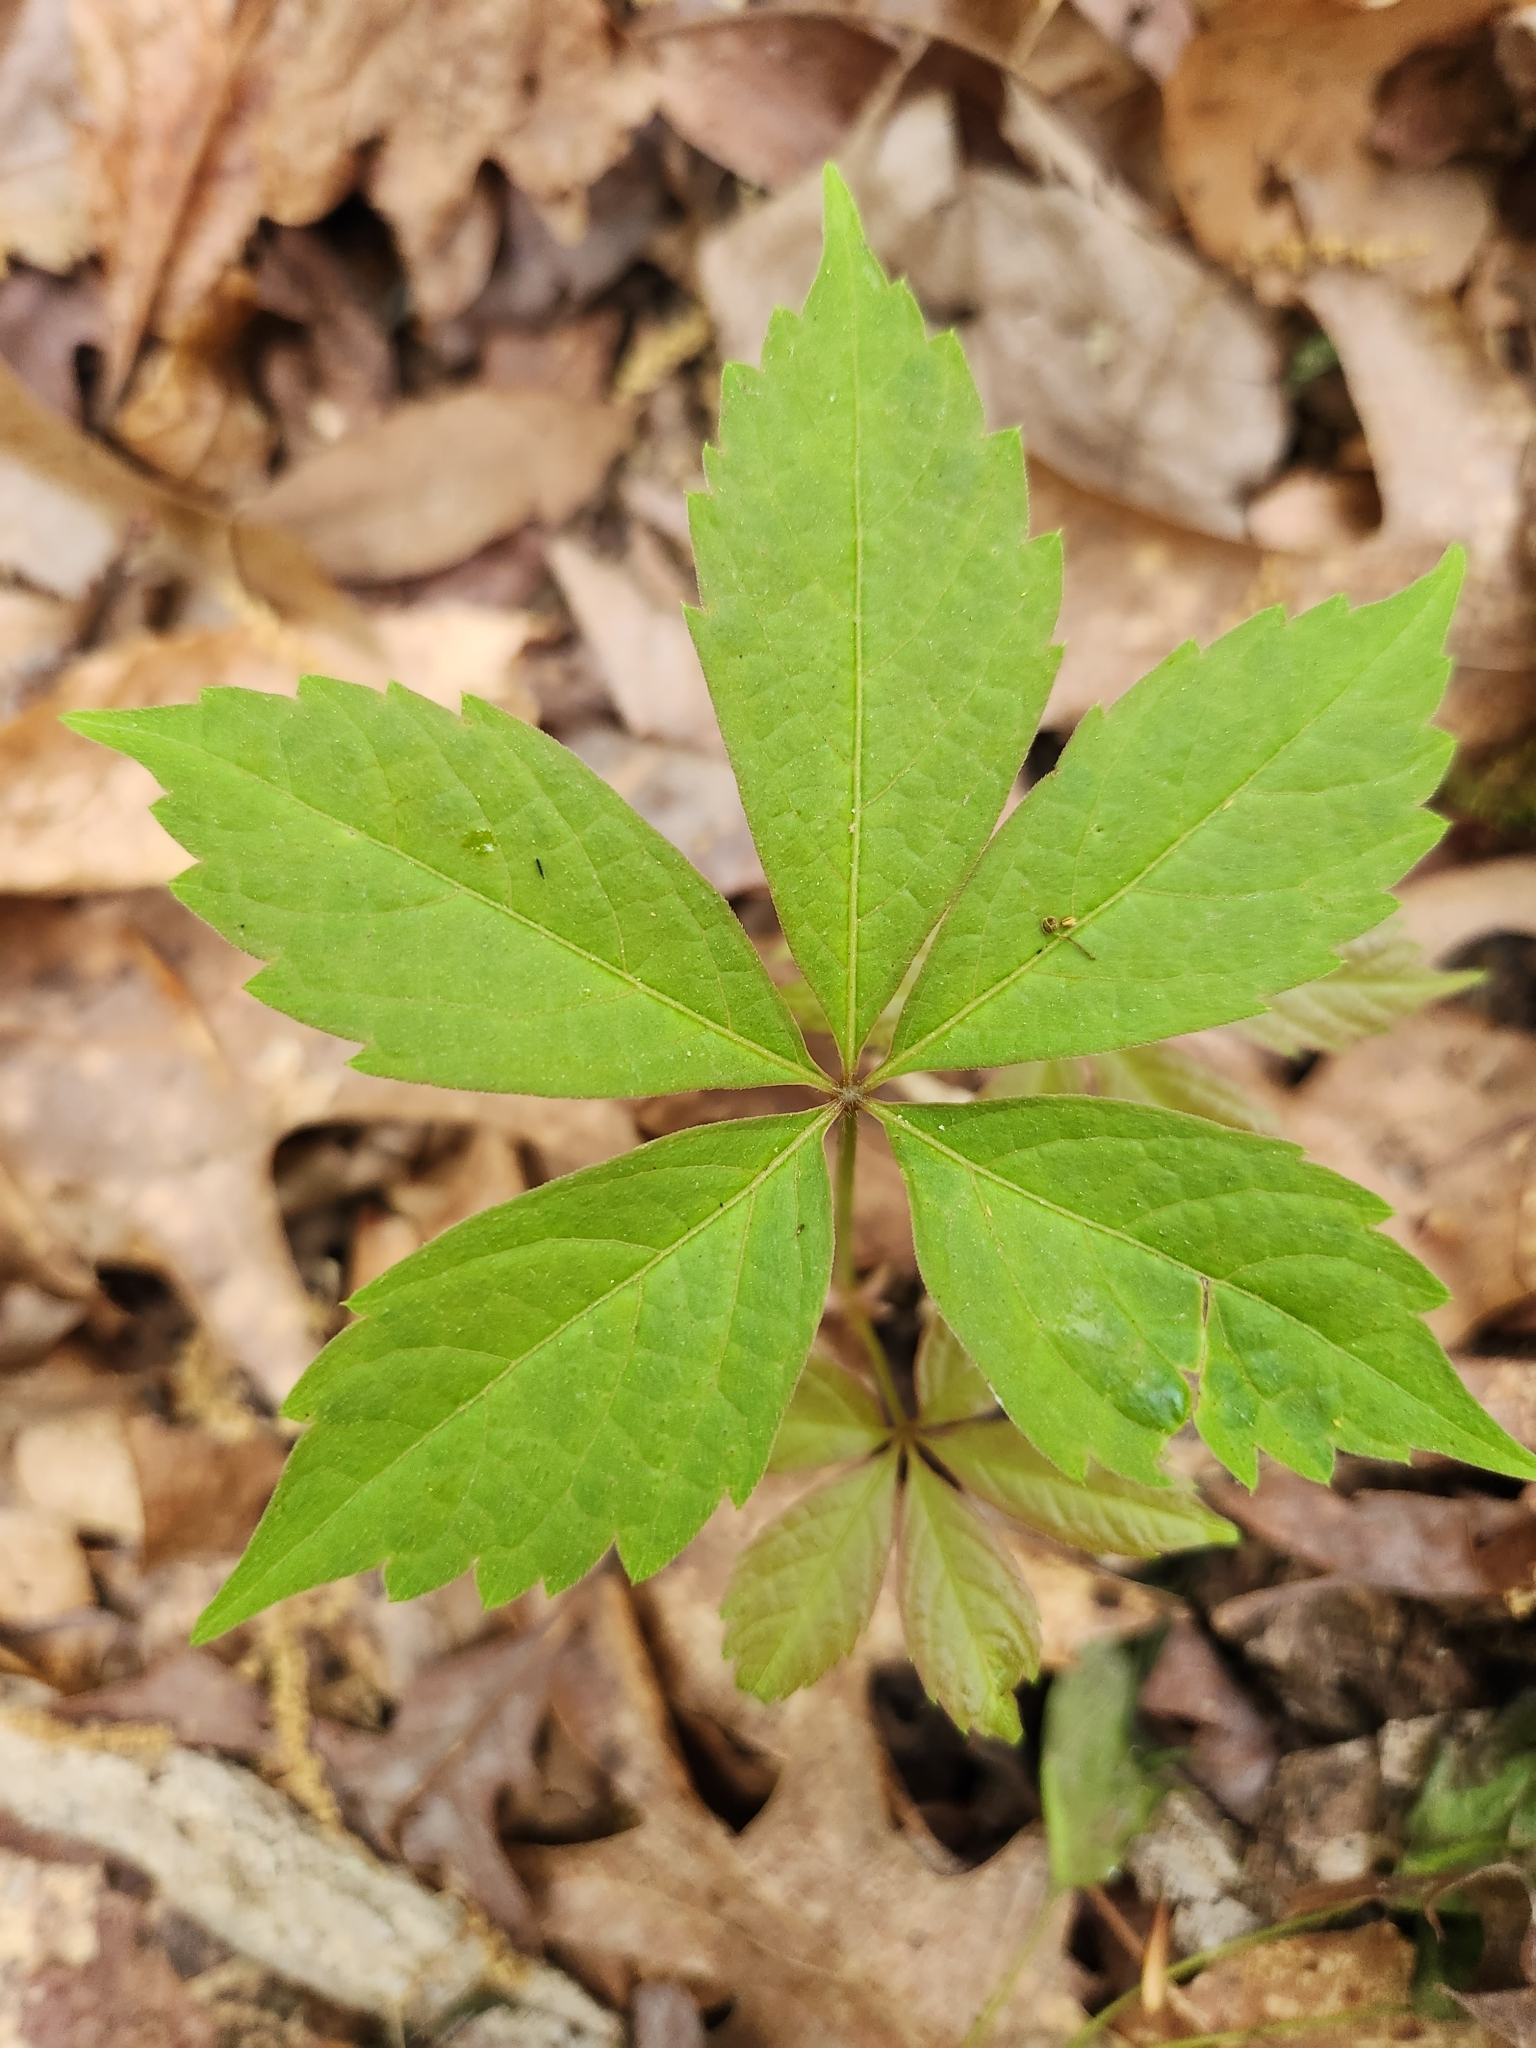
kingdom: Plantae
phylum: Tracheophyta
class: Magnoliopsida
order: Vitales
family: Vitaceae
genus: Parthenocissus
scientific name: Parthenocissus quinquefolia
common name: Virginia-creeper
